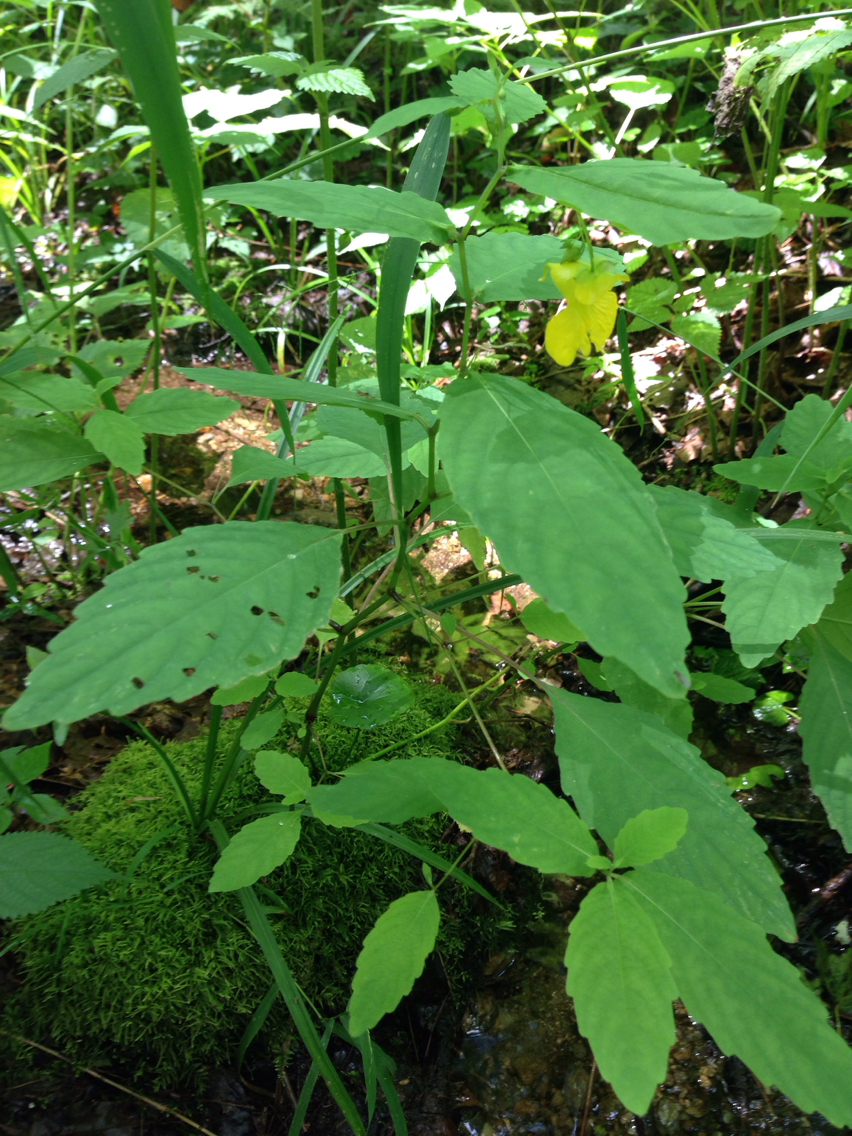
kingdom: Plantae
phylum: Tracheophyta
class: Magnoliopsida
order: Ericales
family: Balsaminaceae
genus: Impatiens
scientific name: Impatiens pallida
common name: Pale snapweed
